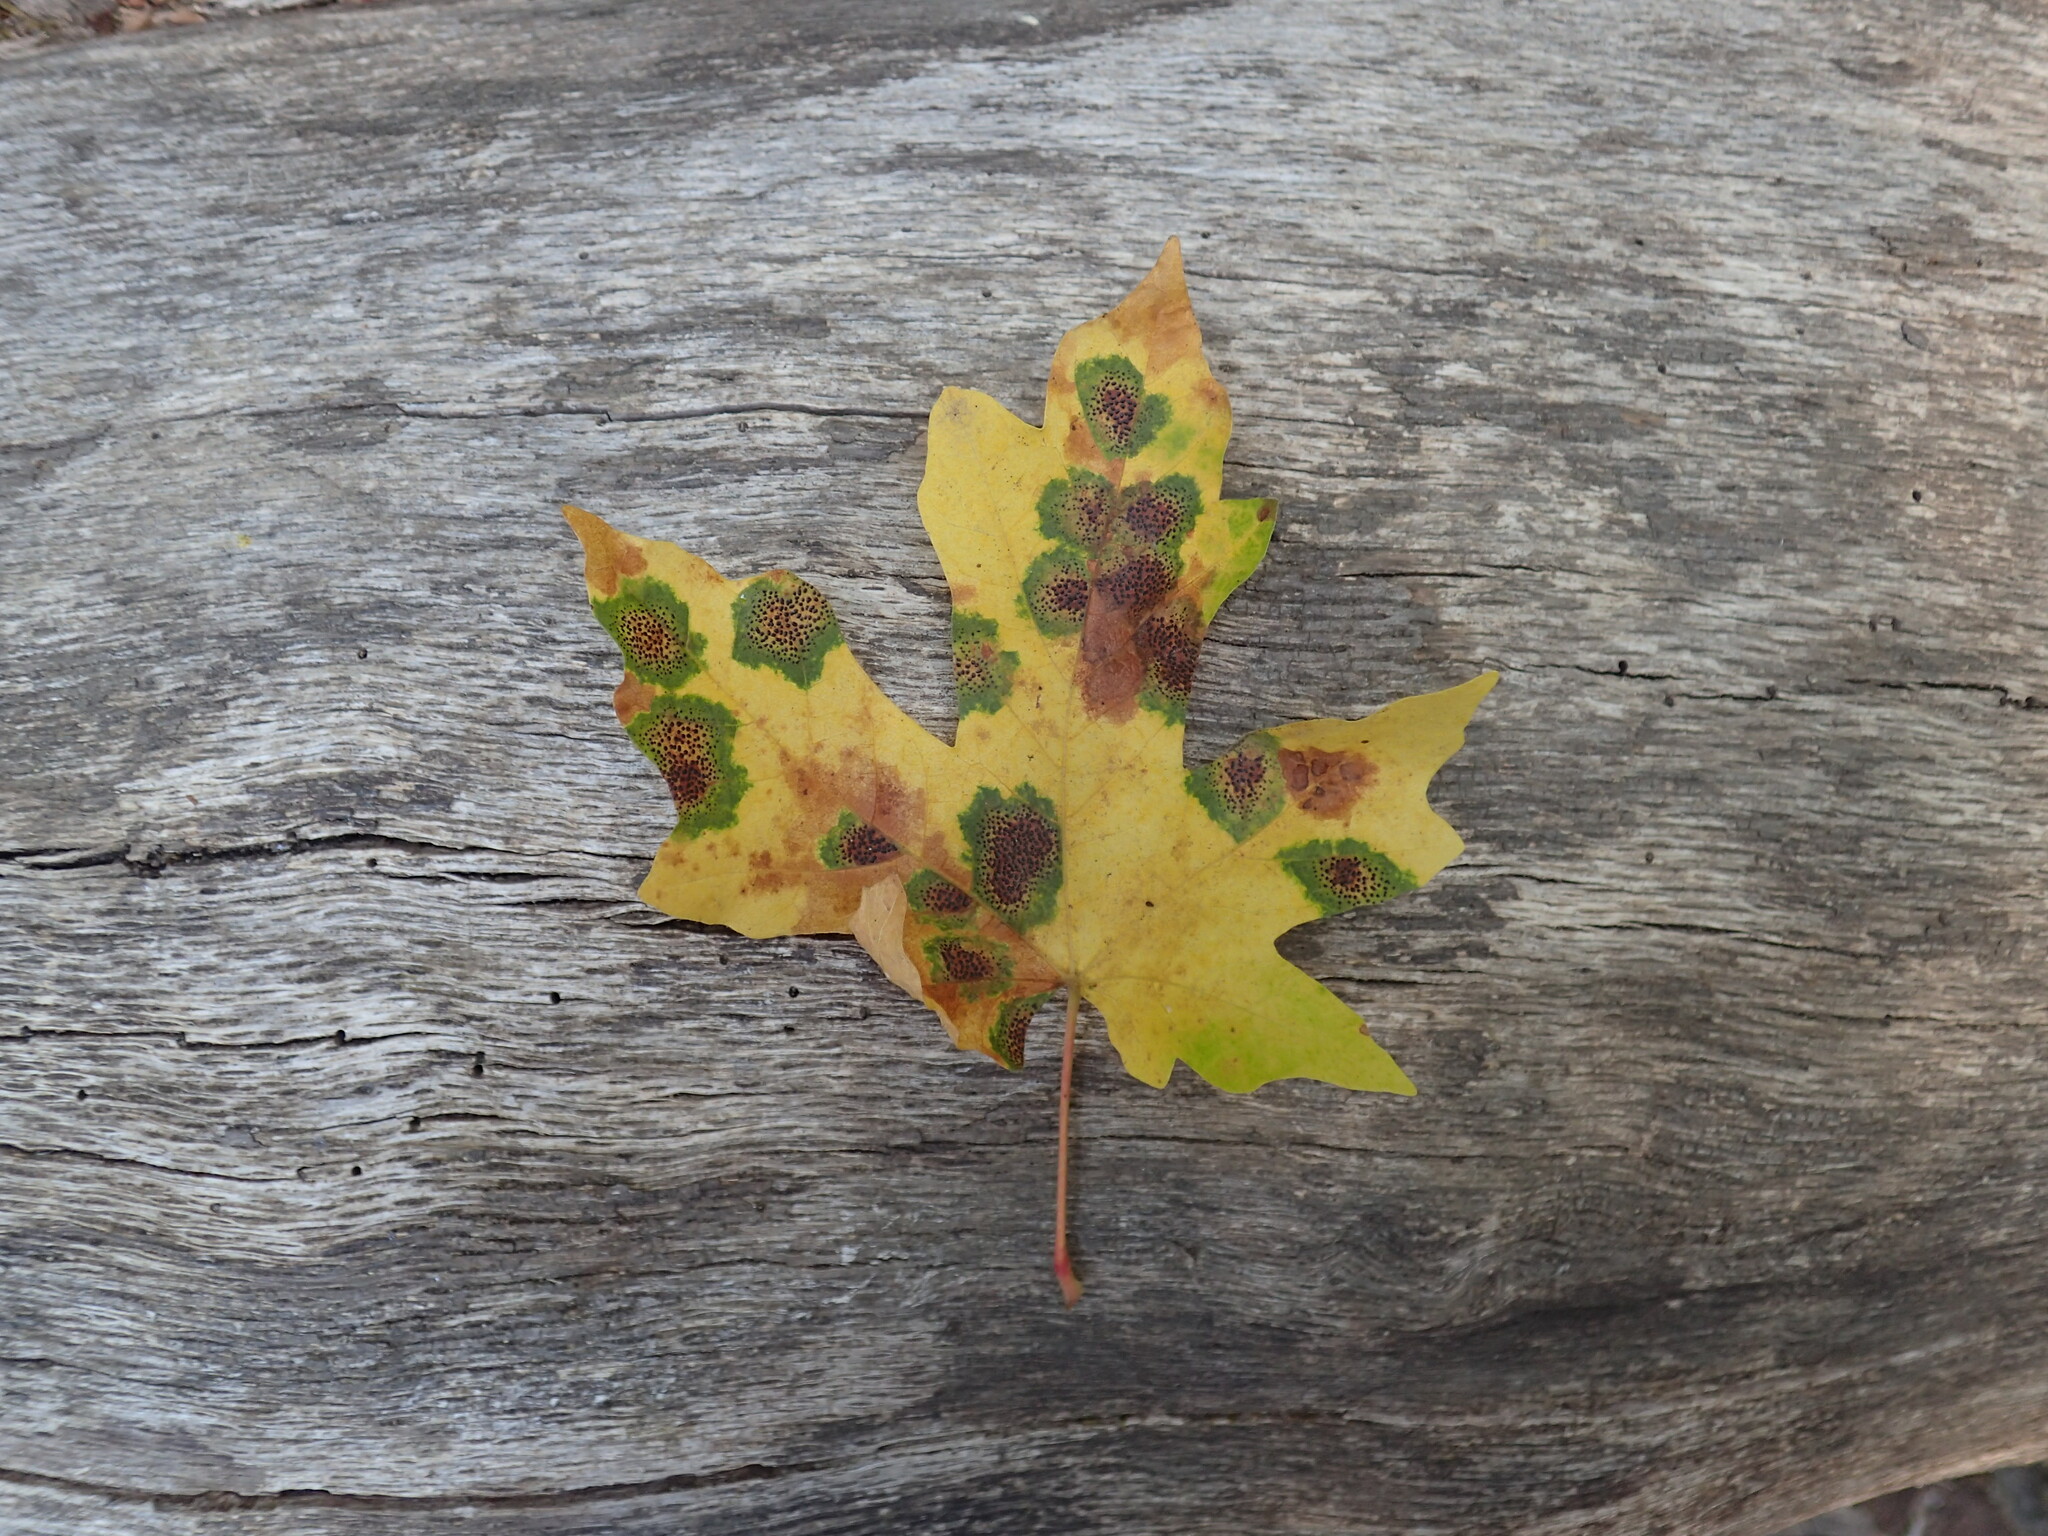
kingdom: Fungi
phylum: Ascomycota
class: Leotiomycetes
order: Rhytismatales
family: Rhytismataceae
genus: Rhytisma
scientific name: Rhytisma punctatum
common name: Speckled tar spot
